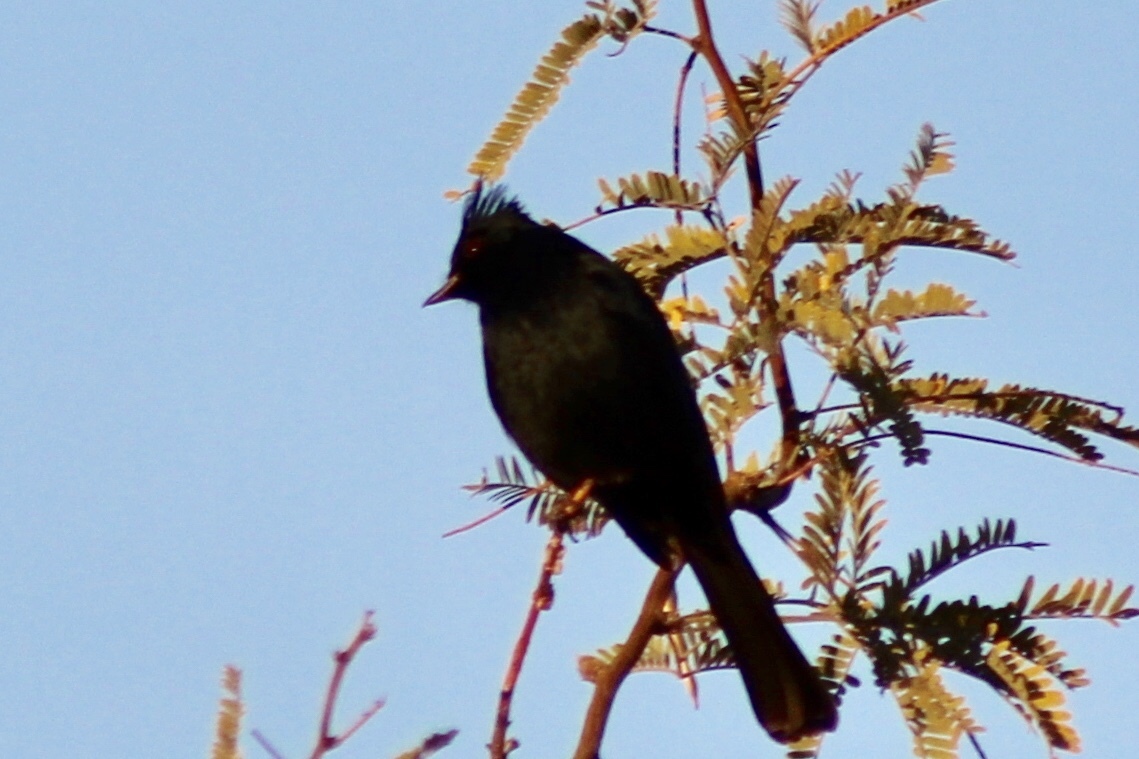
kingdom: Animalia
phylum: Chordata
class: Aves
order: Passeriformes
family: Ptilogonatidae
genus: Phainopepla
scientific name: Phainopepla nitens
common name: Phainopepla
